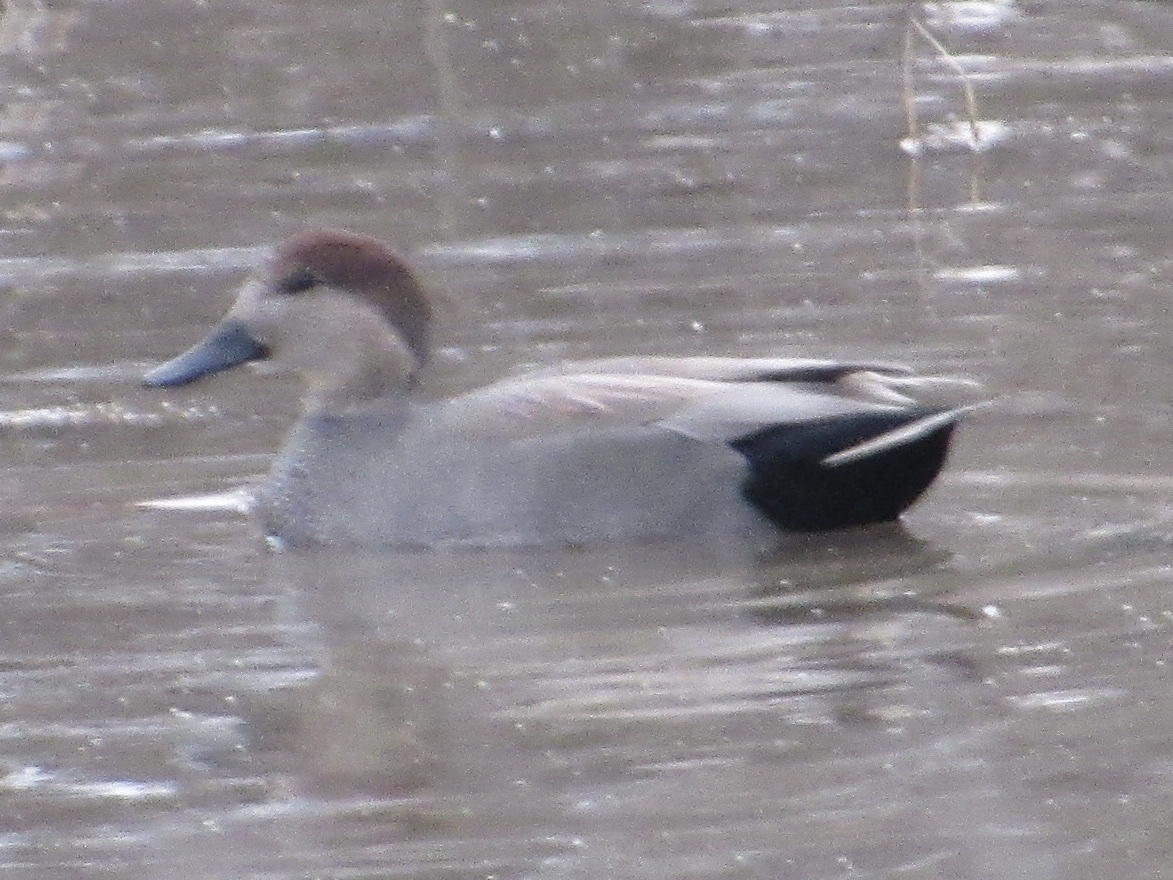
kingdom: Animalia
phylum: Chordata
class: Aves
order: Anseriformes
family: Anatidae
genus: Mareca
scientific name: Mareca strepera
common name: Gadwall
